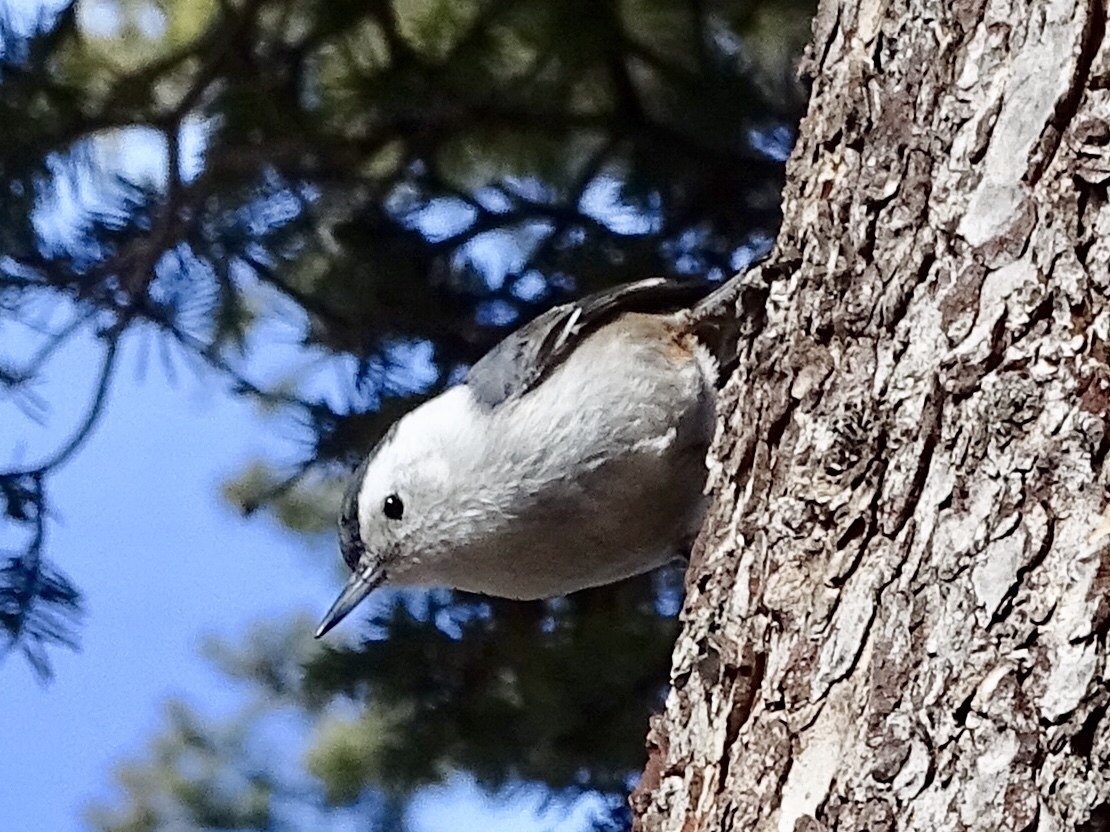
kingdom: Animalia
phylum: Chordata
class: Aves
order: Passeriformes
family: Sittidae
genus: Sitta
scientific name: Sitta carolinensis
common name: White-breasted nuthatch
